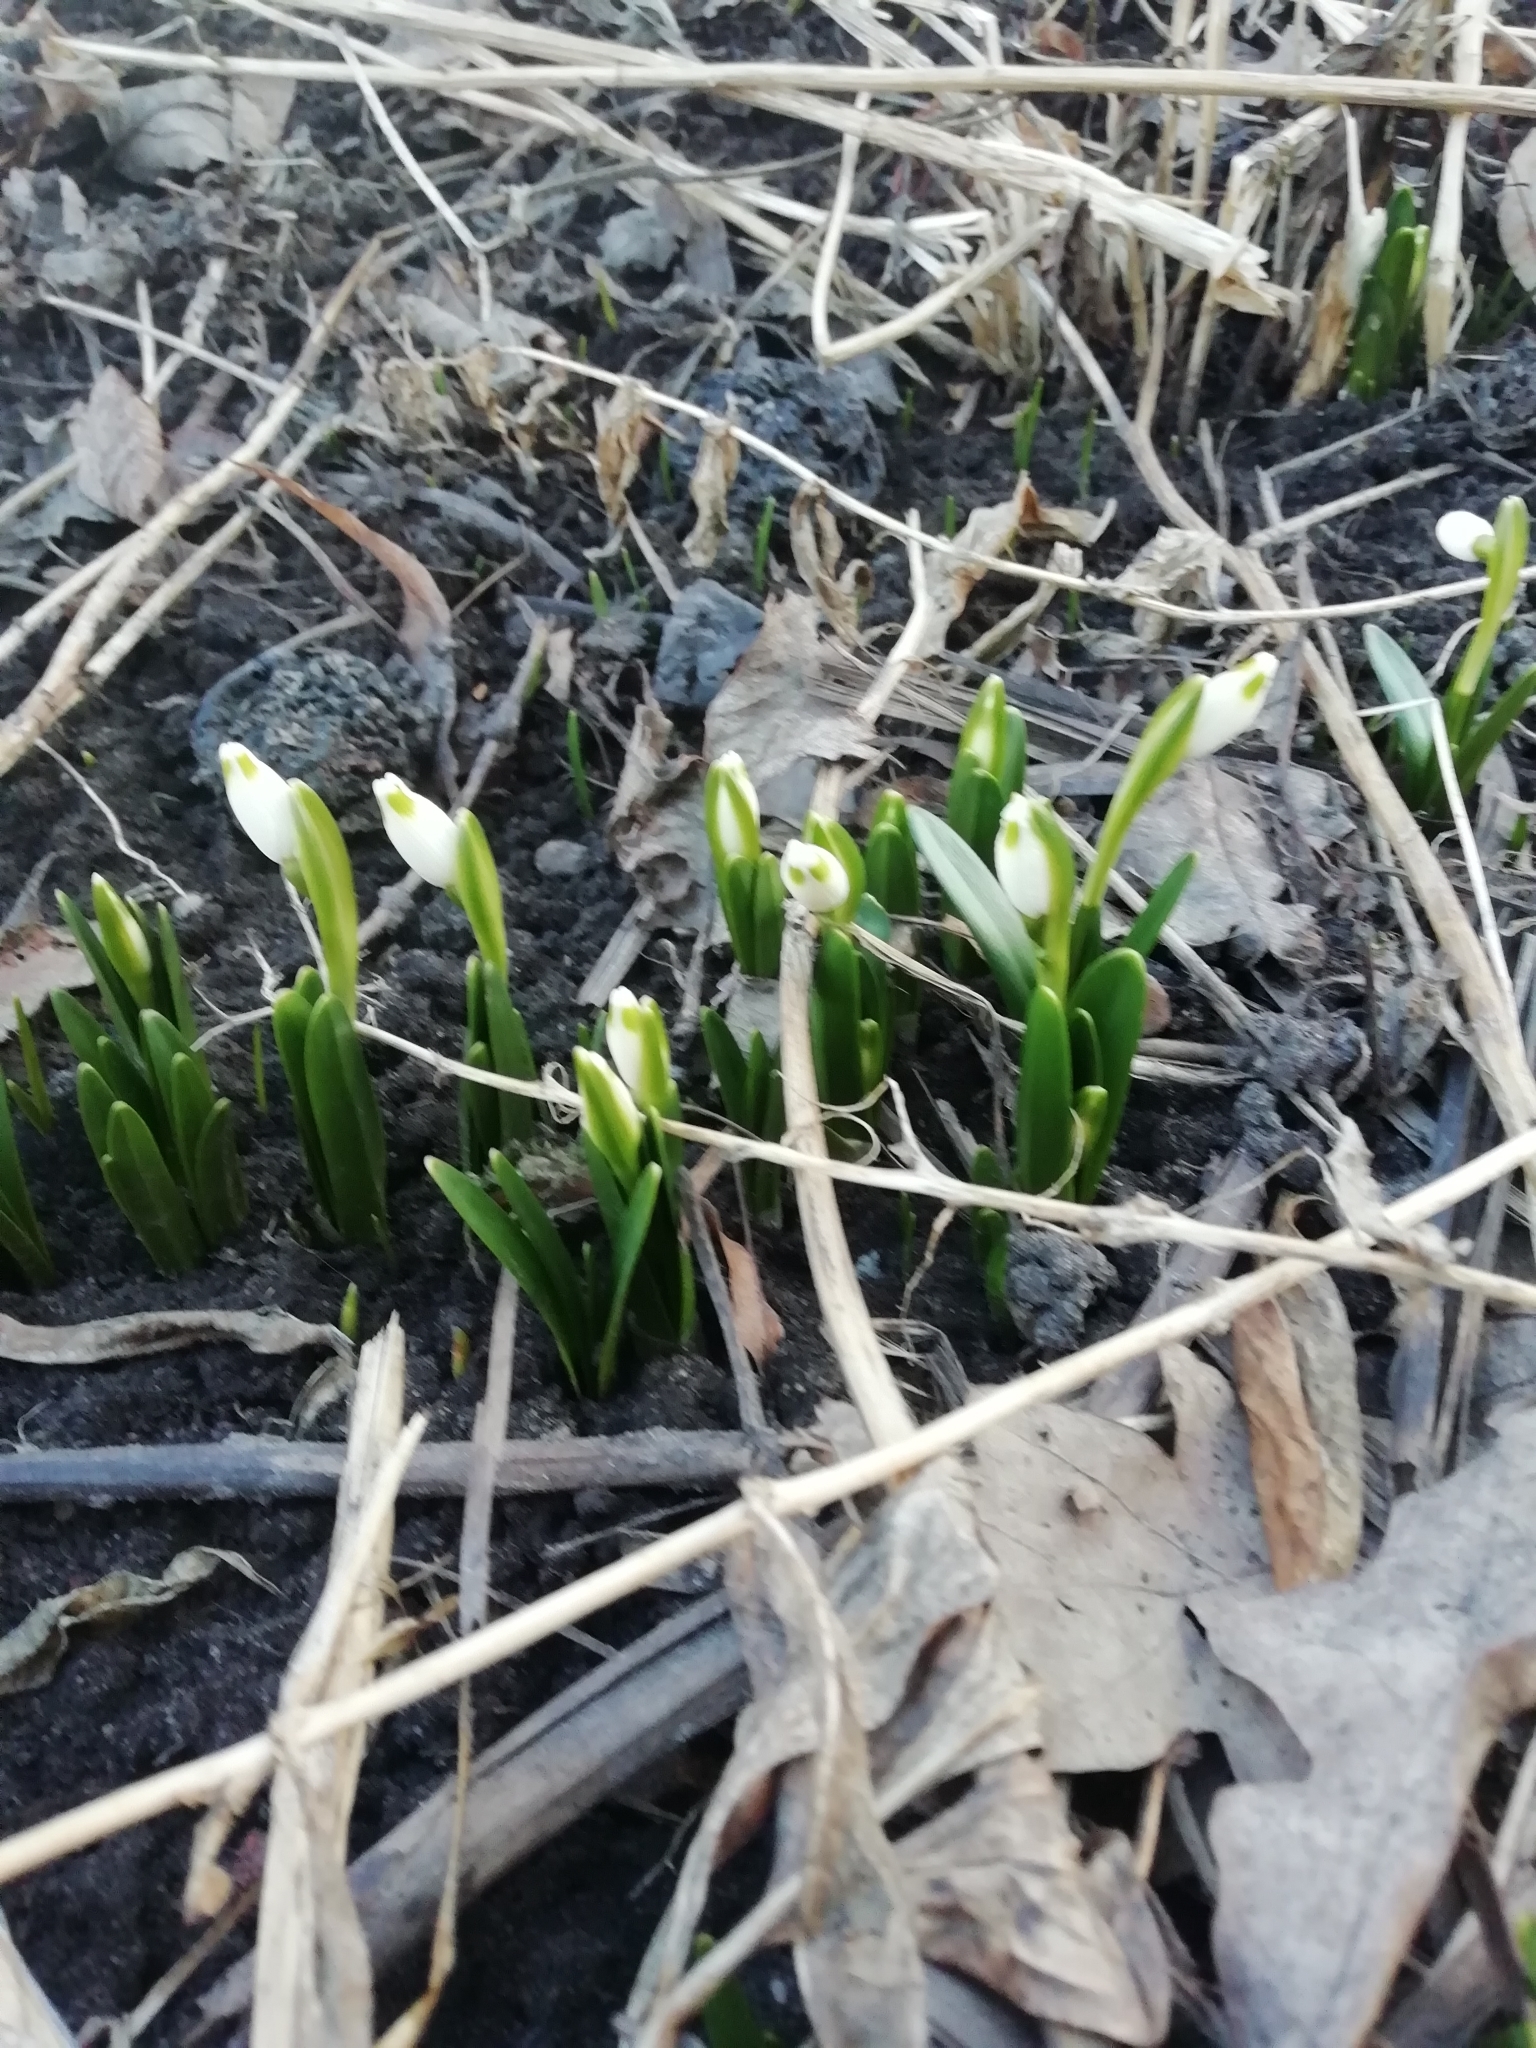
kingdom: Plantae
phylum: Tracheophyta
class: Liliopsida
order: Asparagales
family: Amaryllidaceae
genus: Leucojum
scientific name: Leucojum vernum
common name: Spring snowflake
